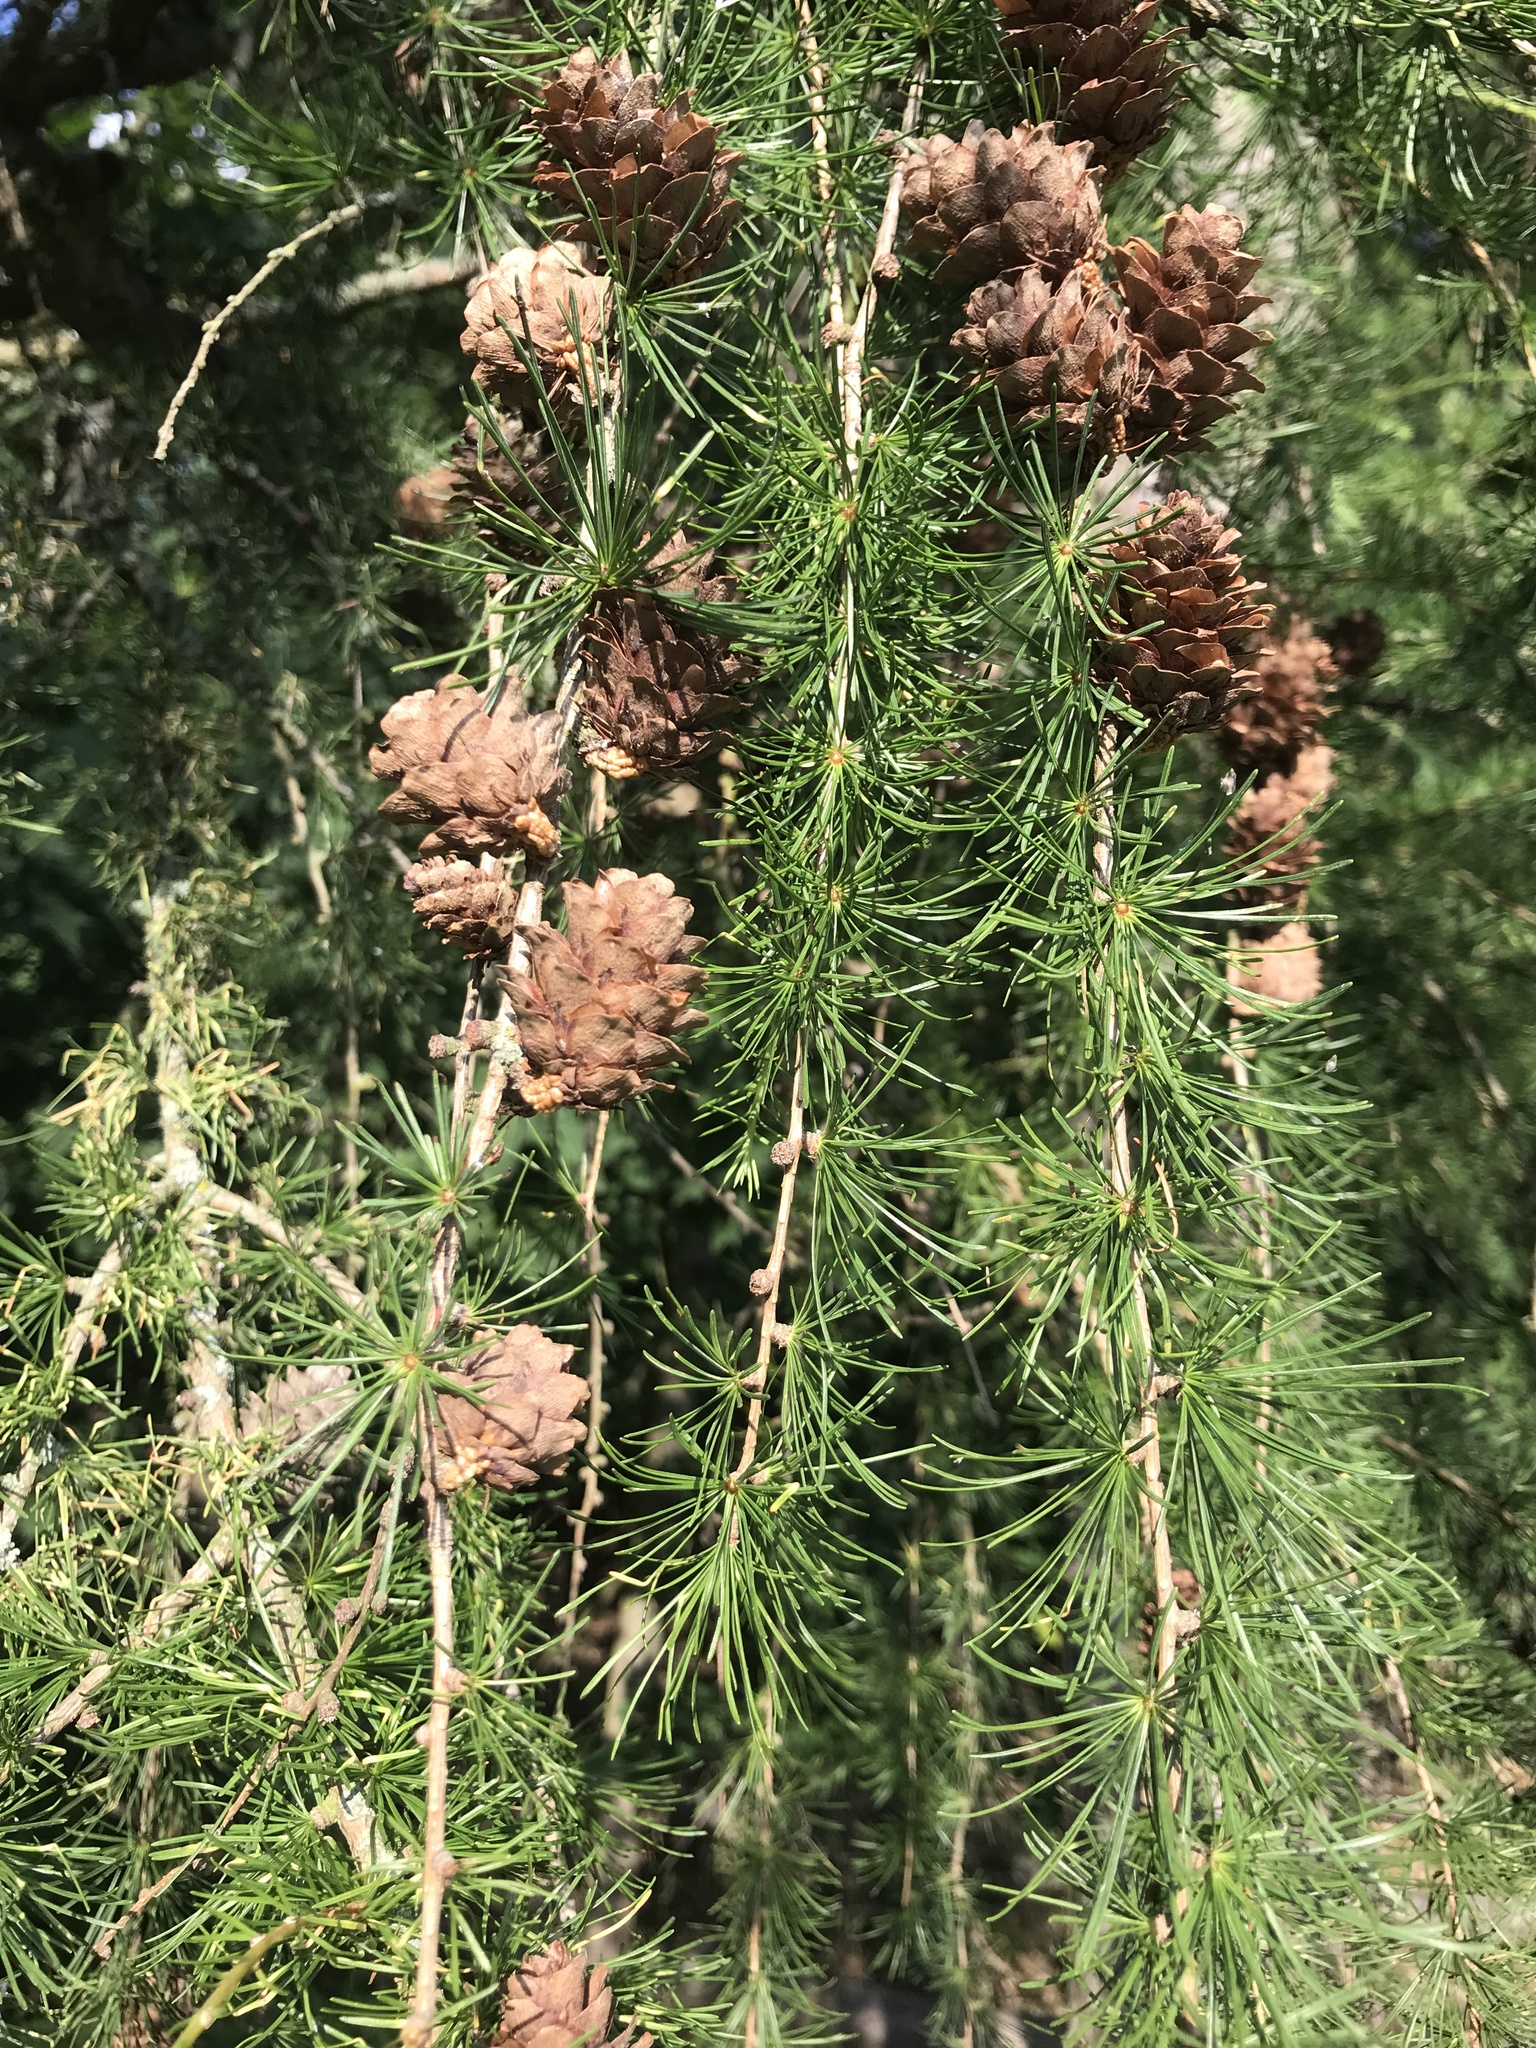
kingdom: Plantae
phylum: Tracheophyta
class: Pinopsida
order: Pinales
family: Pinaceae
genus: Larix
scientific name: Larix decidua
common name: European larch
